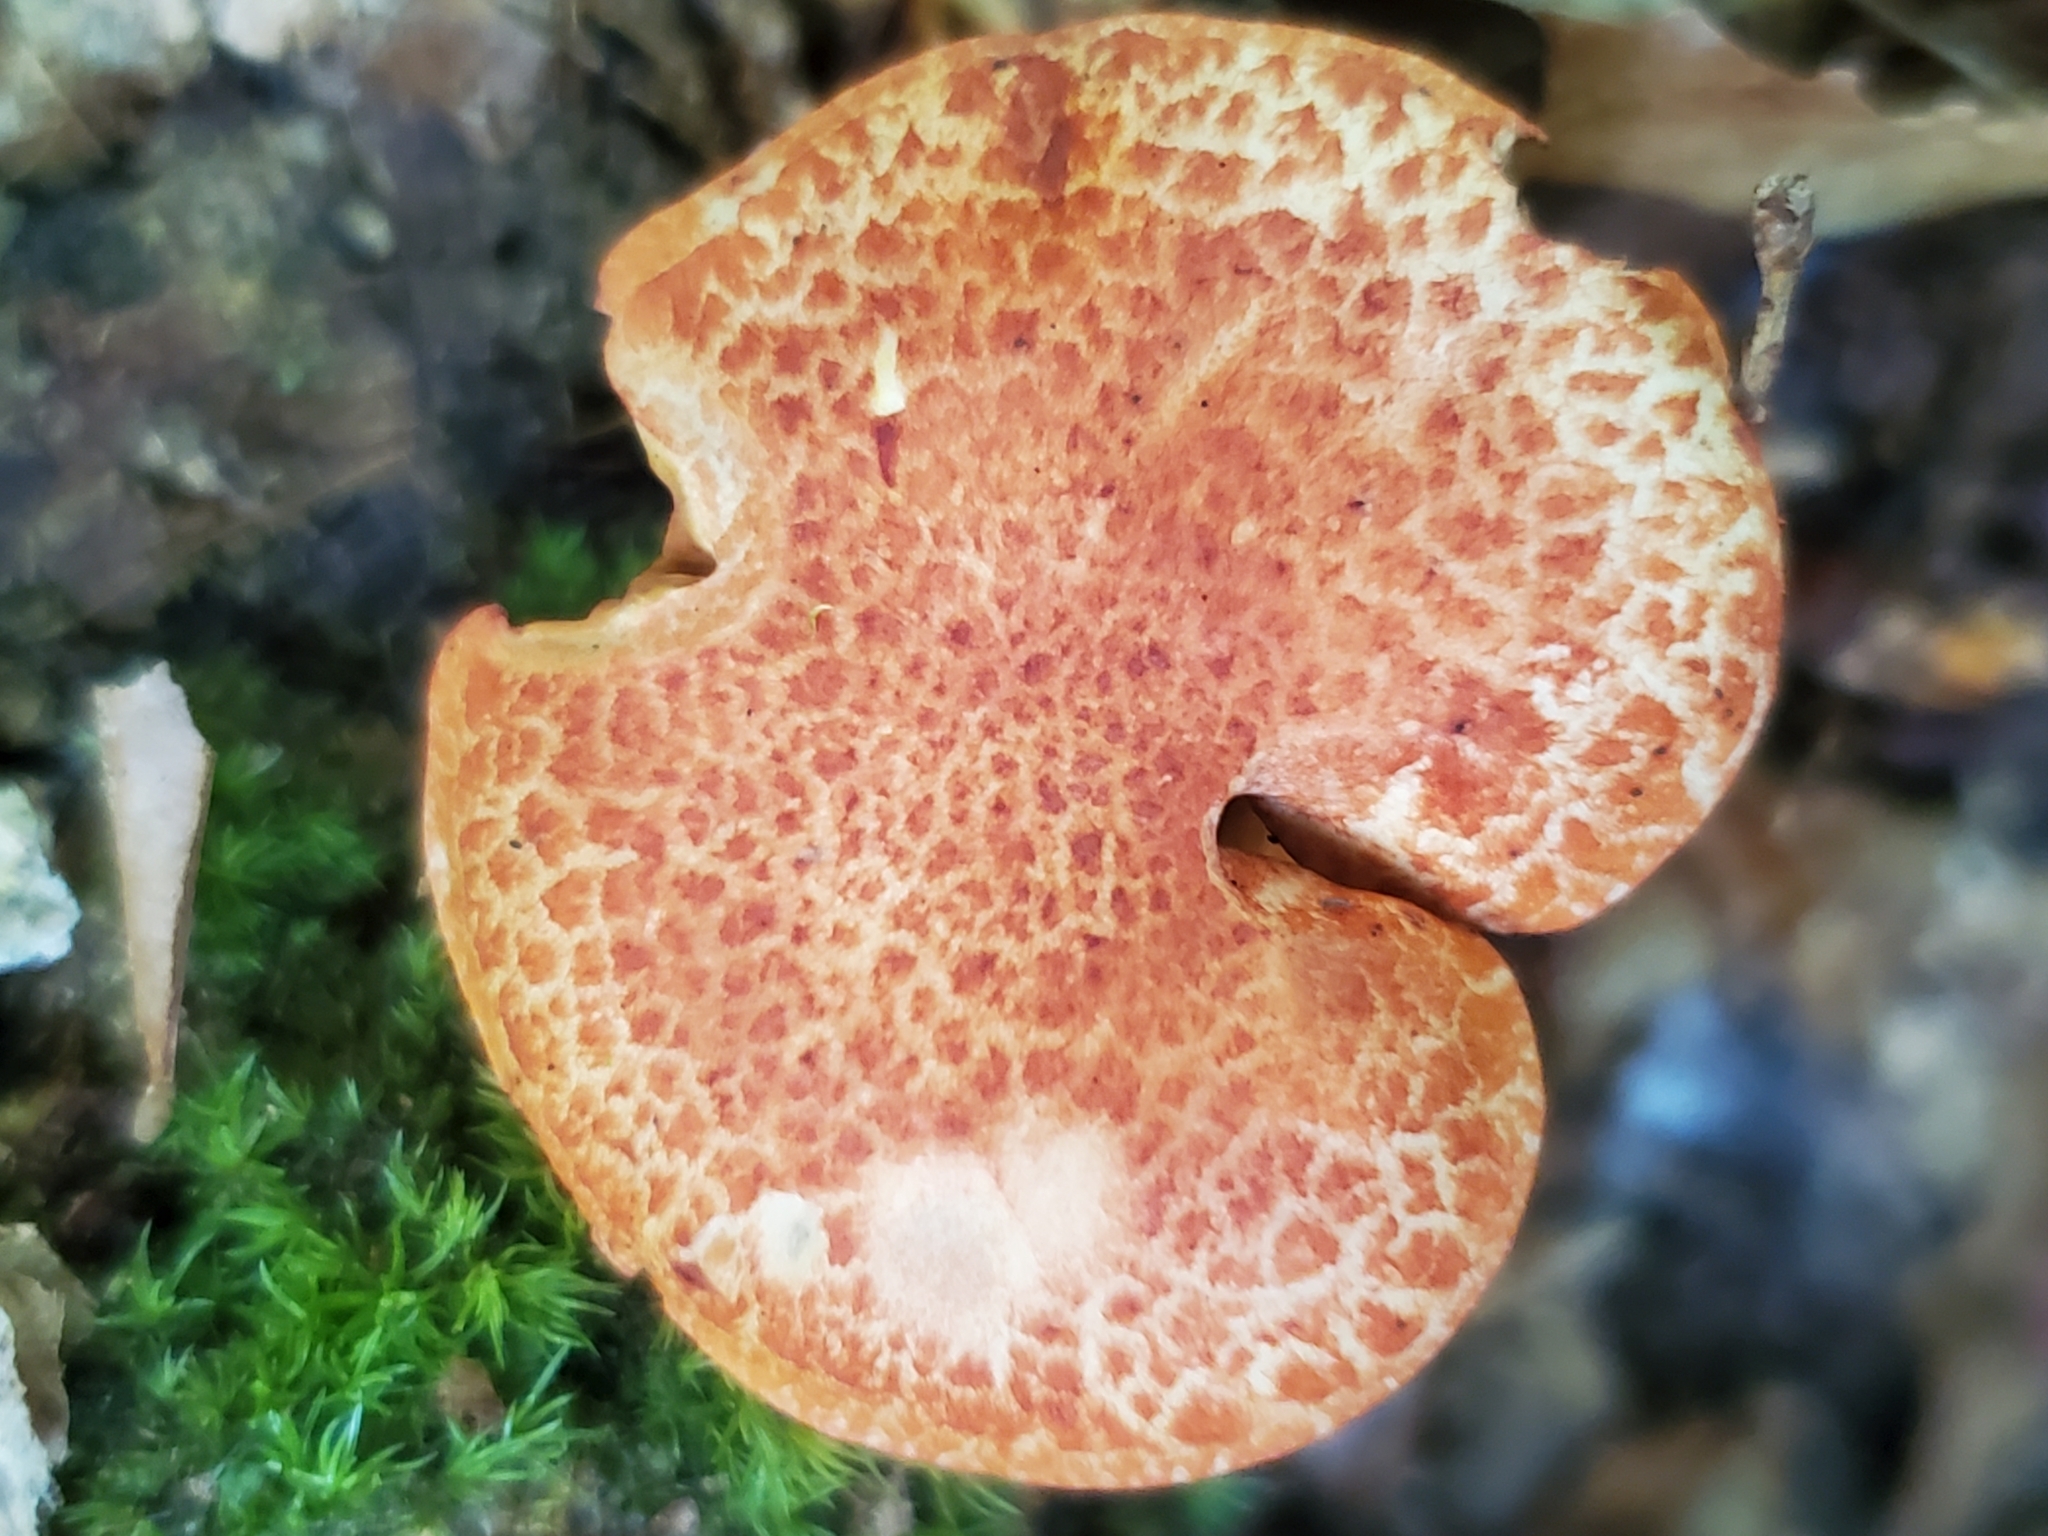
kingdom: Fungi
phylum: Basidiomycota
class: Agaricomycetes
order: Agaricales
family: Cortinariaceae
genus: Cortinarius
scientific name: Cortinarius bolaris
